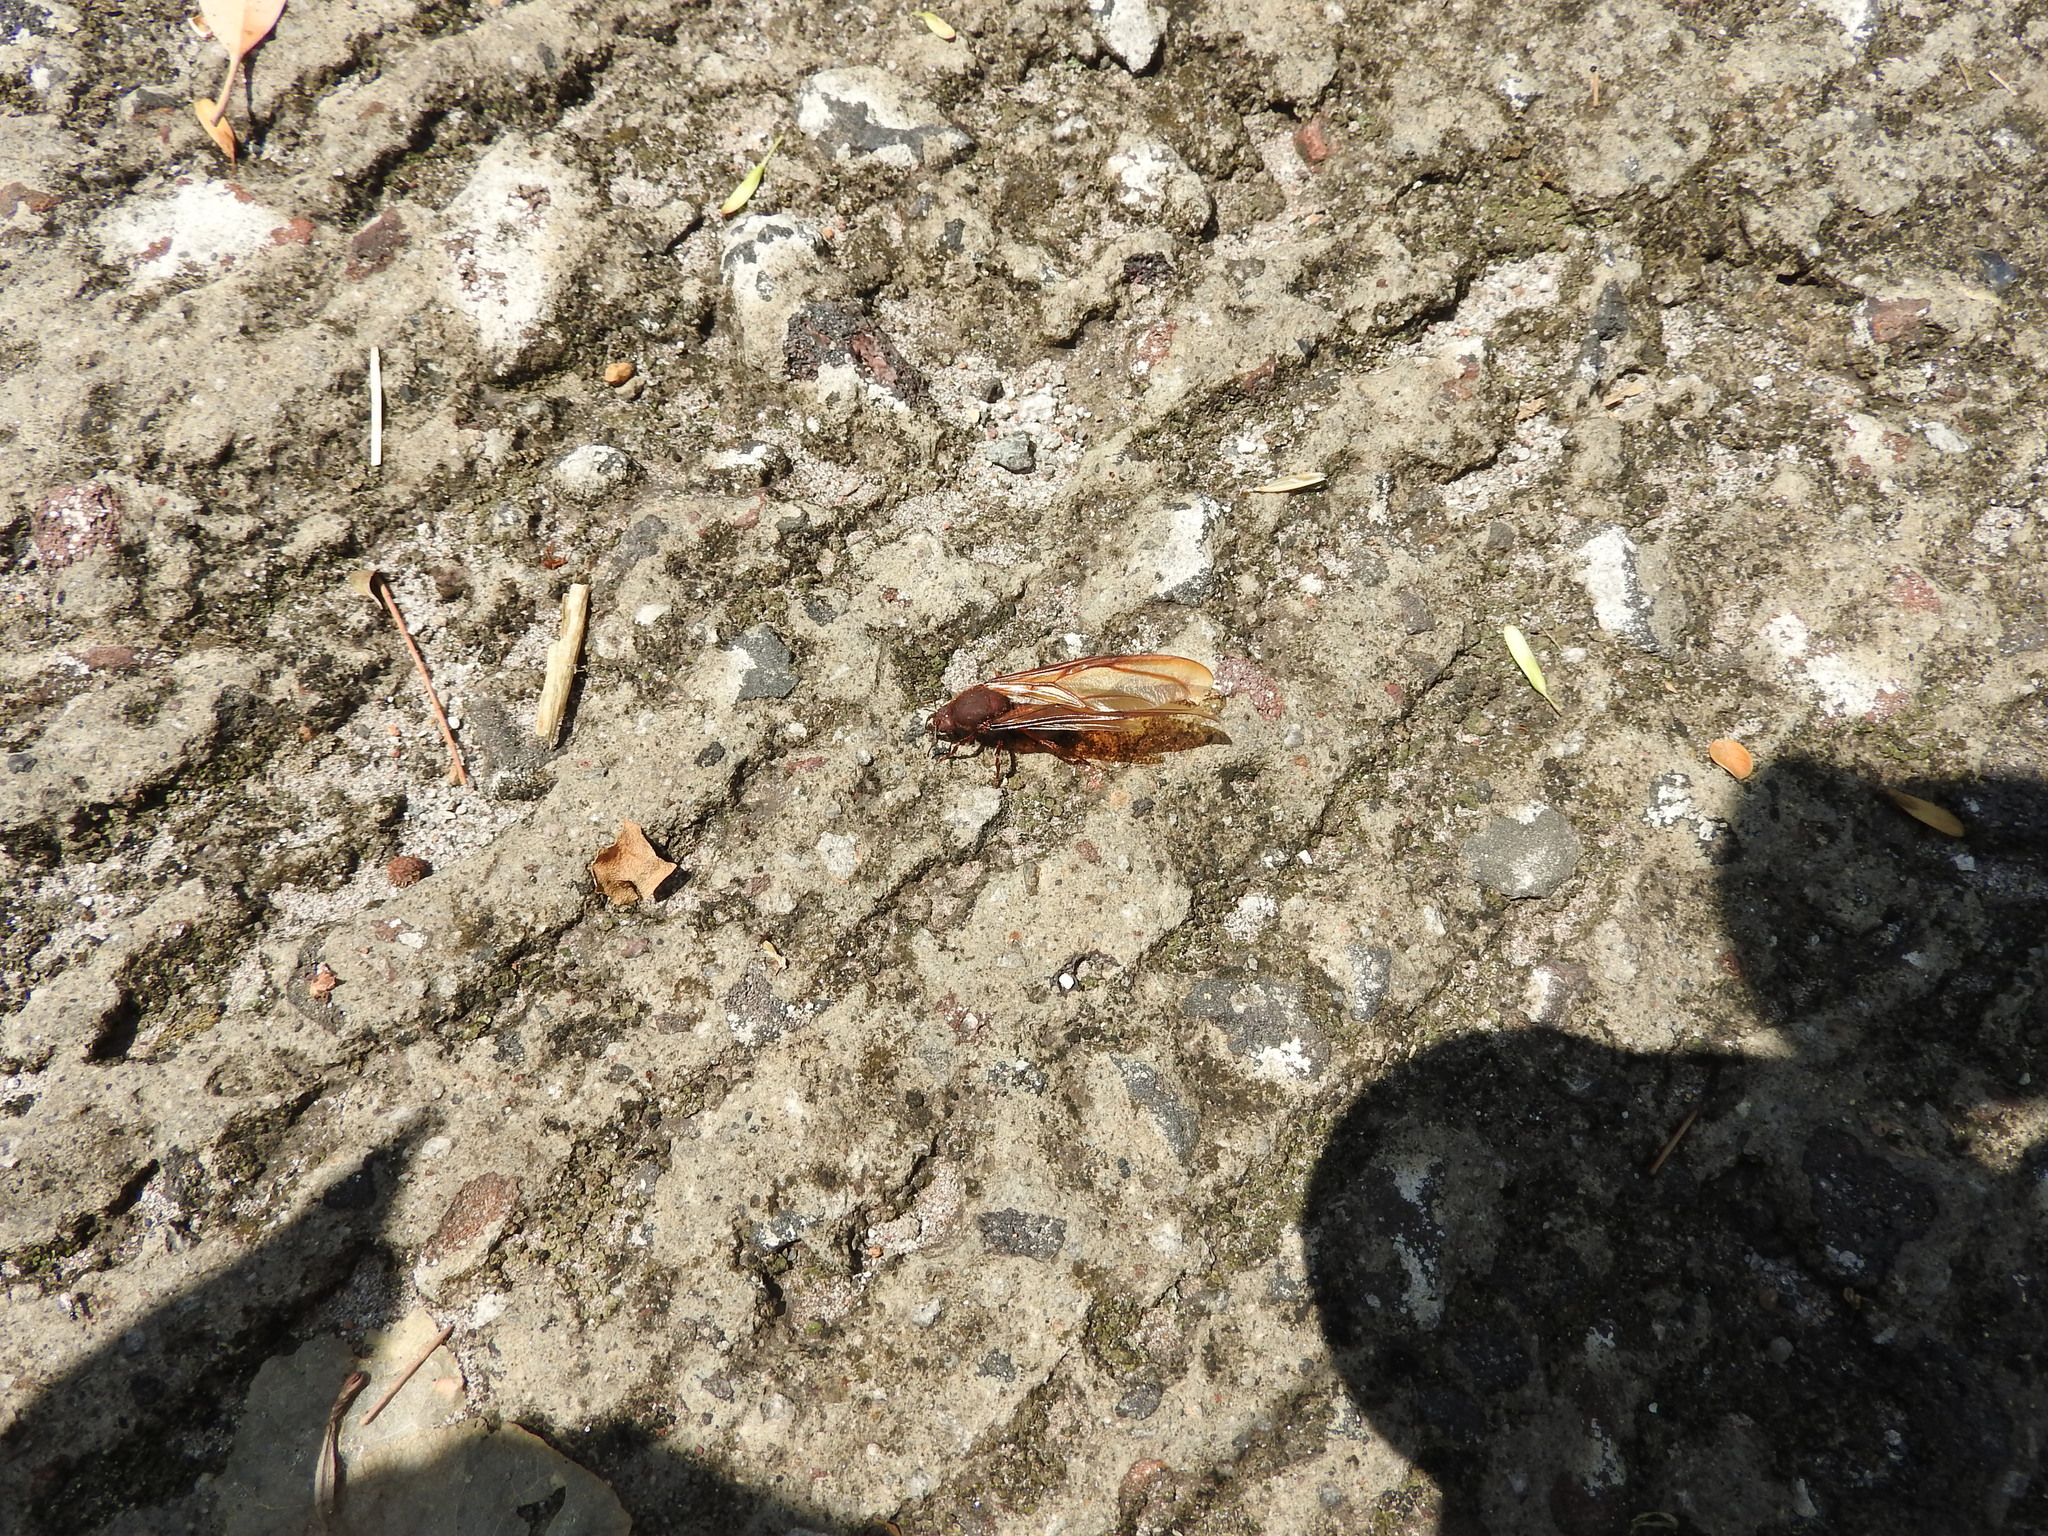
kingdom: Animalia
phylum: Arthropoda
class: Insecta
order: Hymenoptera
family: Formicidae
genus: Atta
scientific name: Atta mexicana
